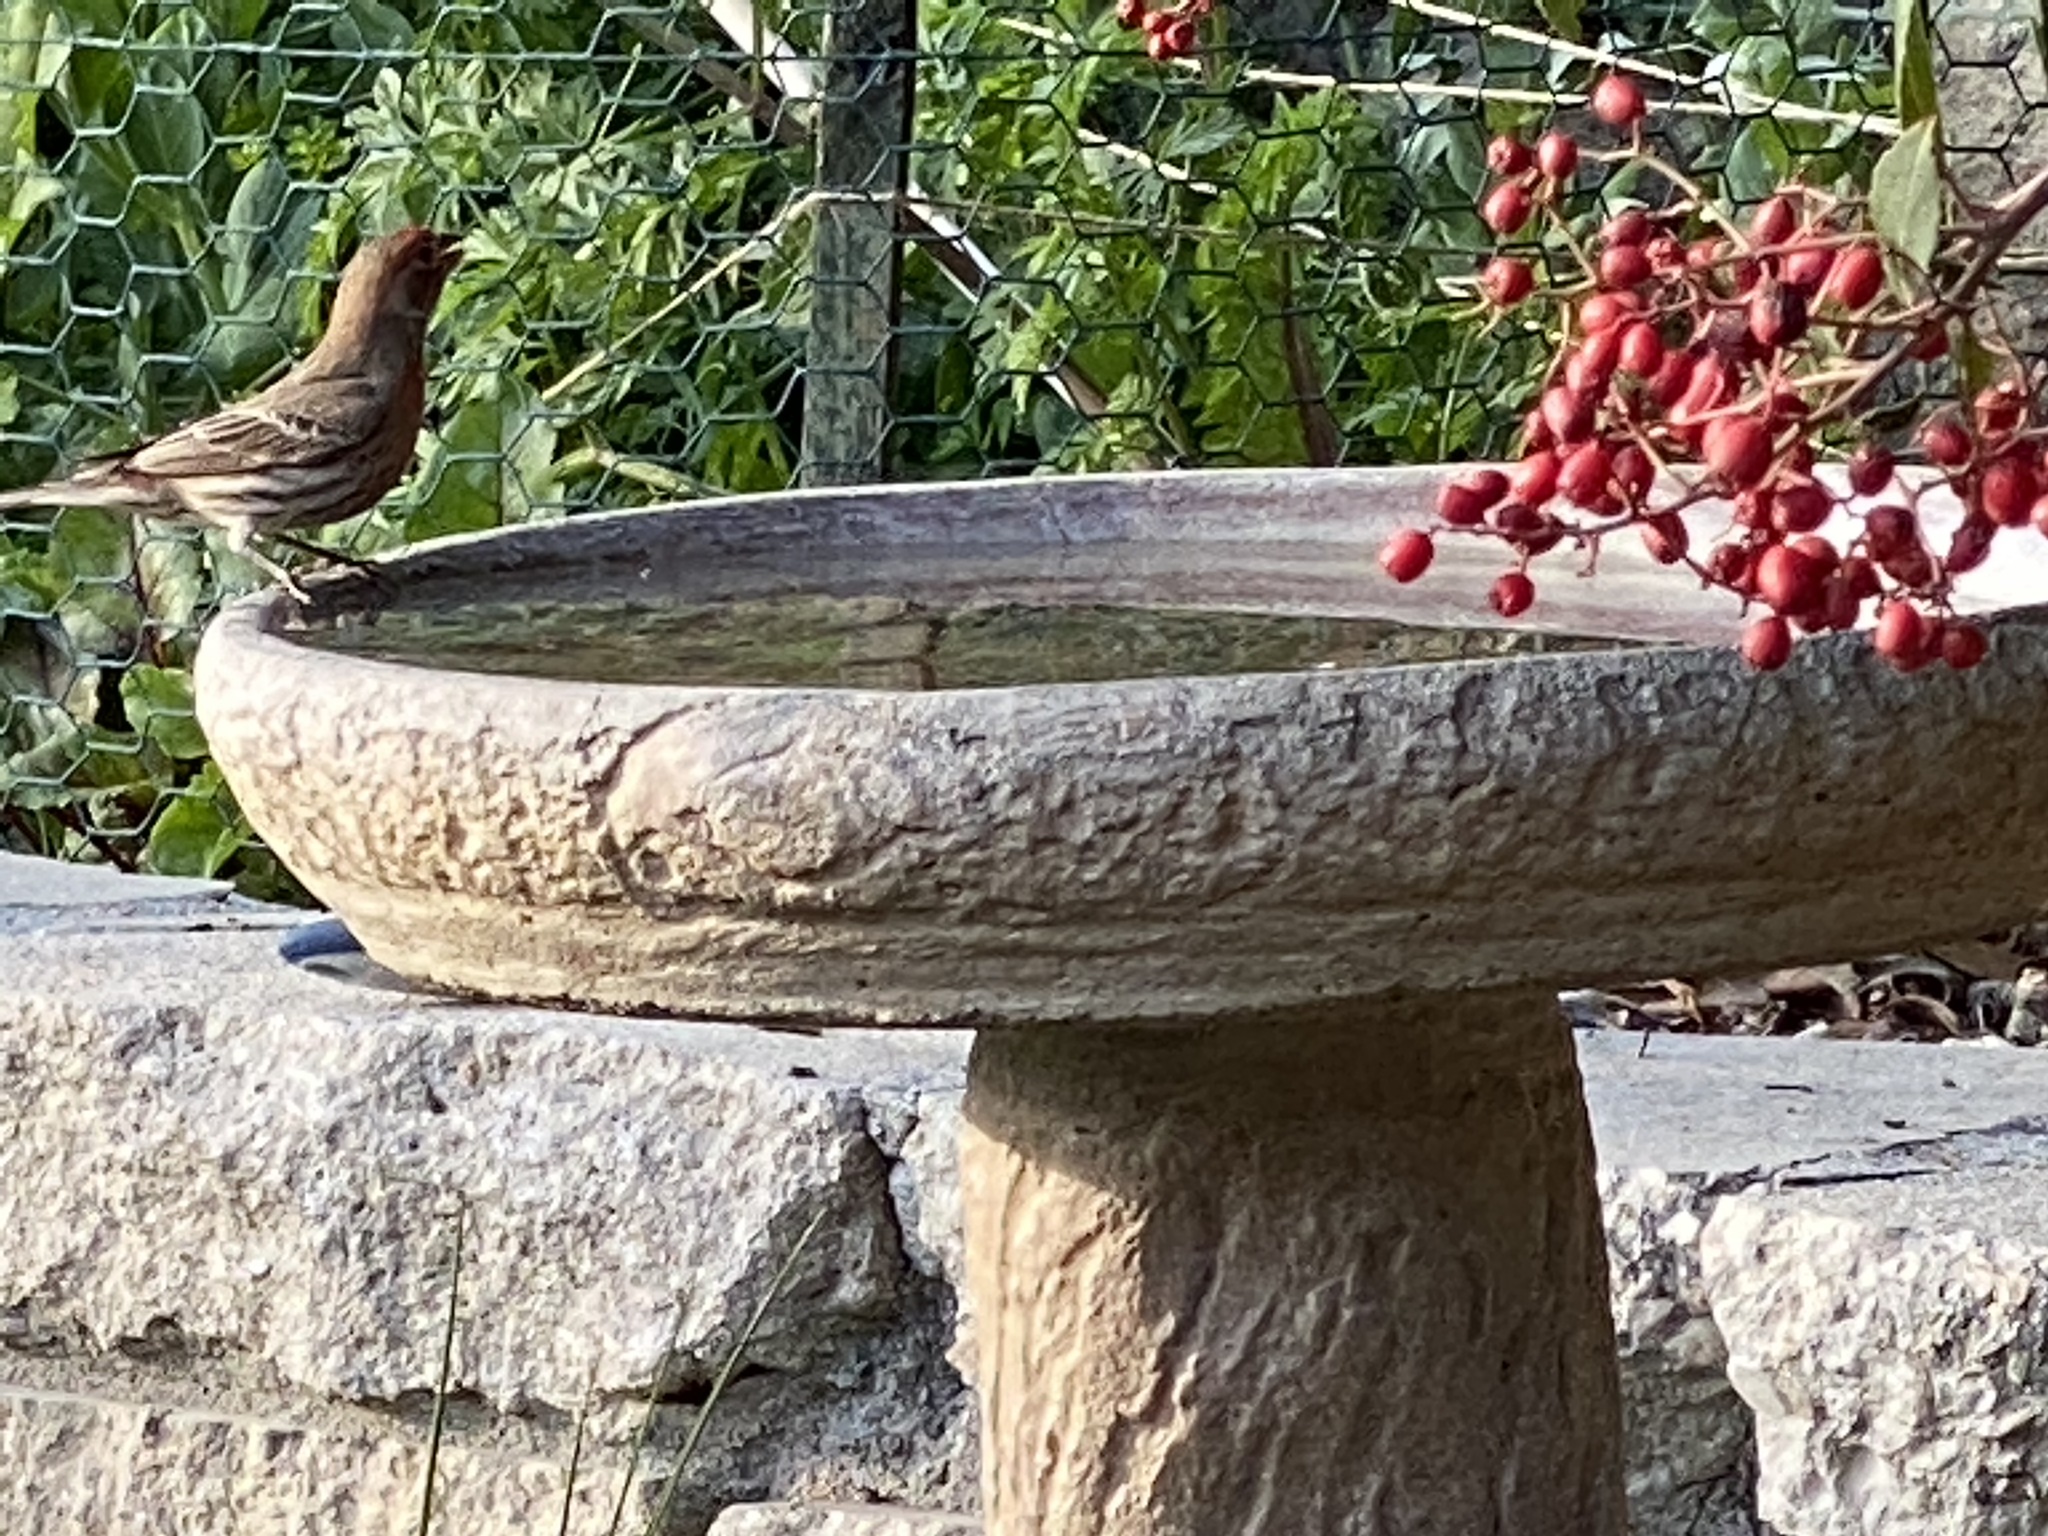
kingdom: Animalia
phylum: Chordata
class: Aves
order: Passeriformes
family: Fringillidae
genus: Haemorhous
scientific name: Haemorhous mexicanus
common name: House finch
